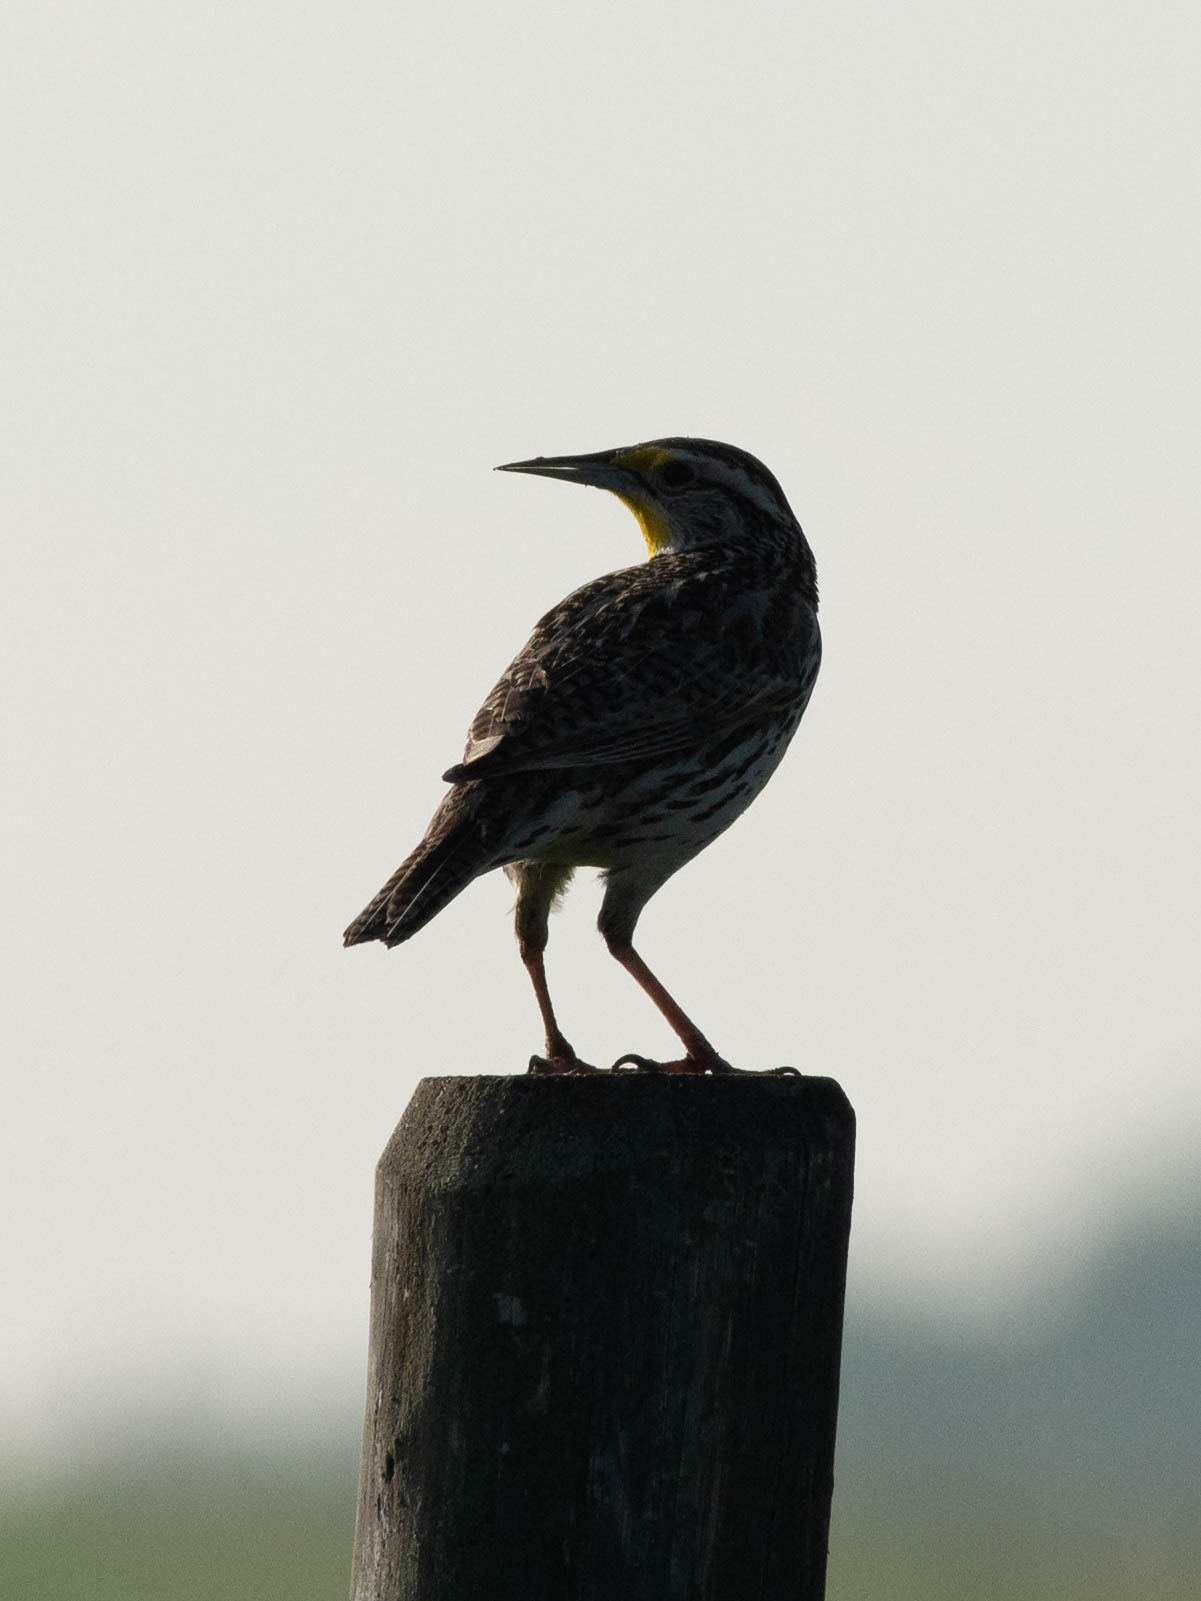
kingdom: Animalia
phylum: Chordata
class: Aves
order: Passeriformes
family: Icteridae
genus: Sturnella
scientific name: Sturnella neglecta
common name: Western meadowlark
